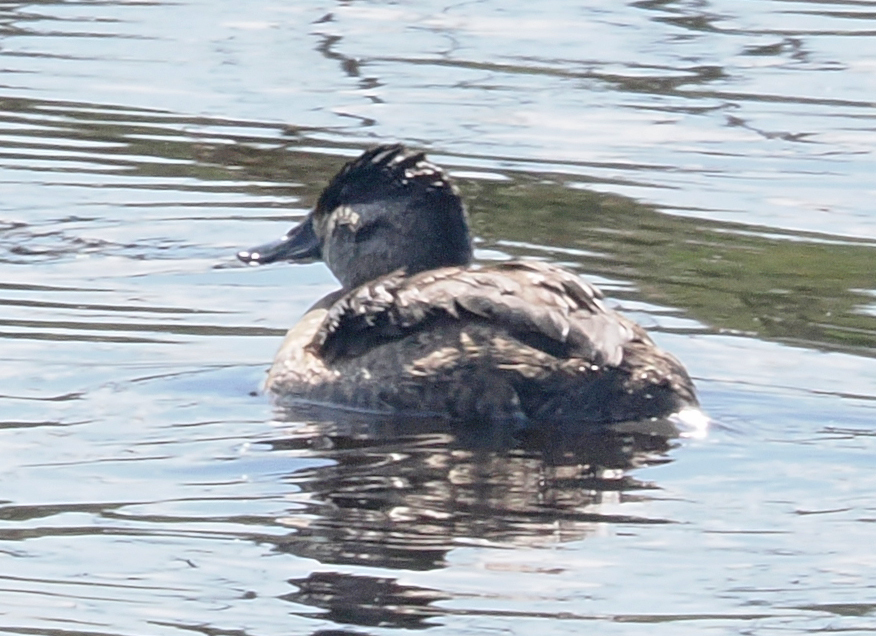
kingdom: Animalia
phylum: Chordata
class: Aves
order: Anseriformes
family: Anatidae
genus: Oxyura
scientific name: Oxyura jamaicensis
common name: Ruddy duck
